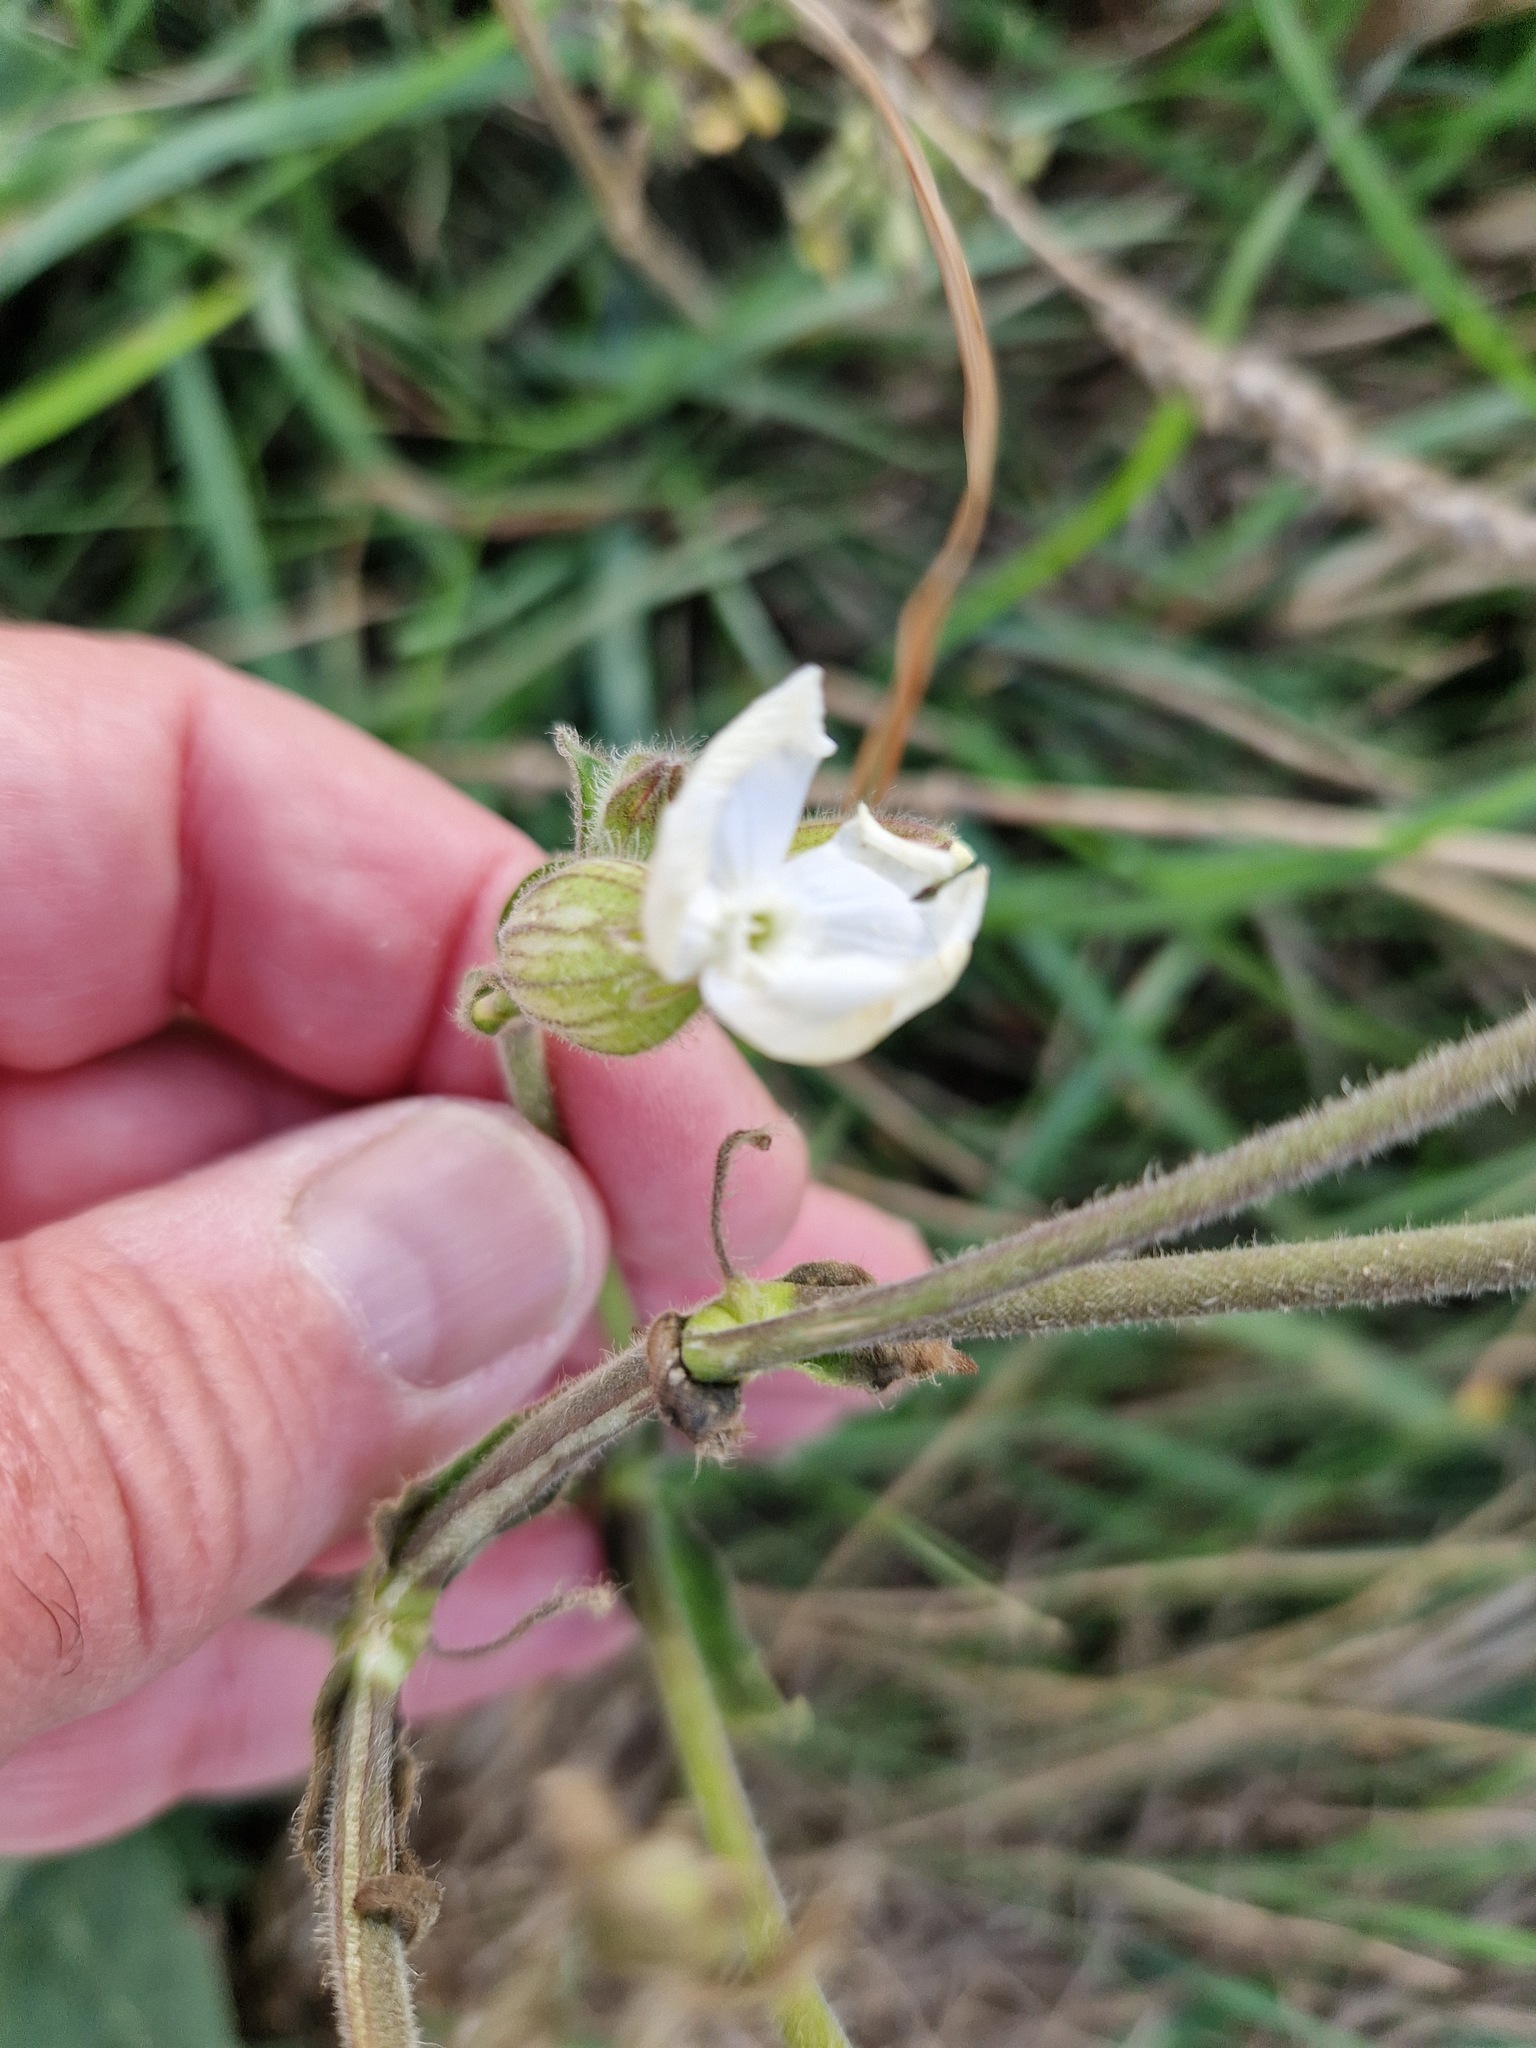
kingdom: Plantae
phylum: Tracheophyta
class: Magnoliopsida
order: Caryophyllales
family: Caryophyllaceae
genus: Silene
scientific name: Silene latifolia
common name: White campion
